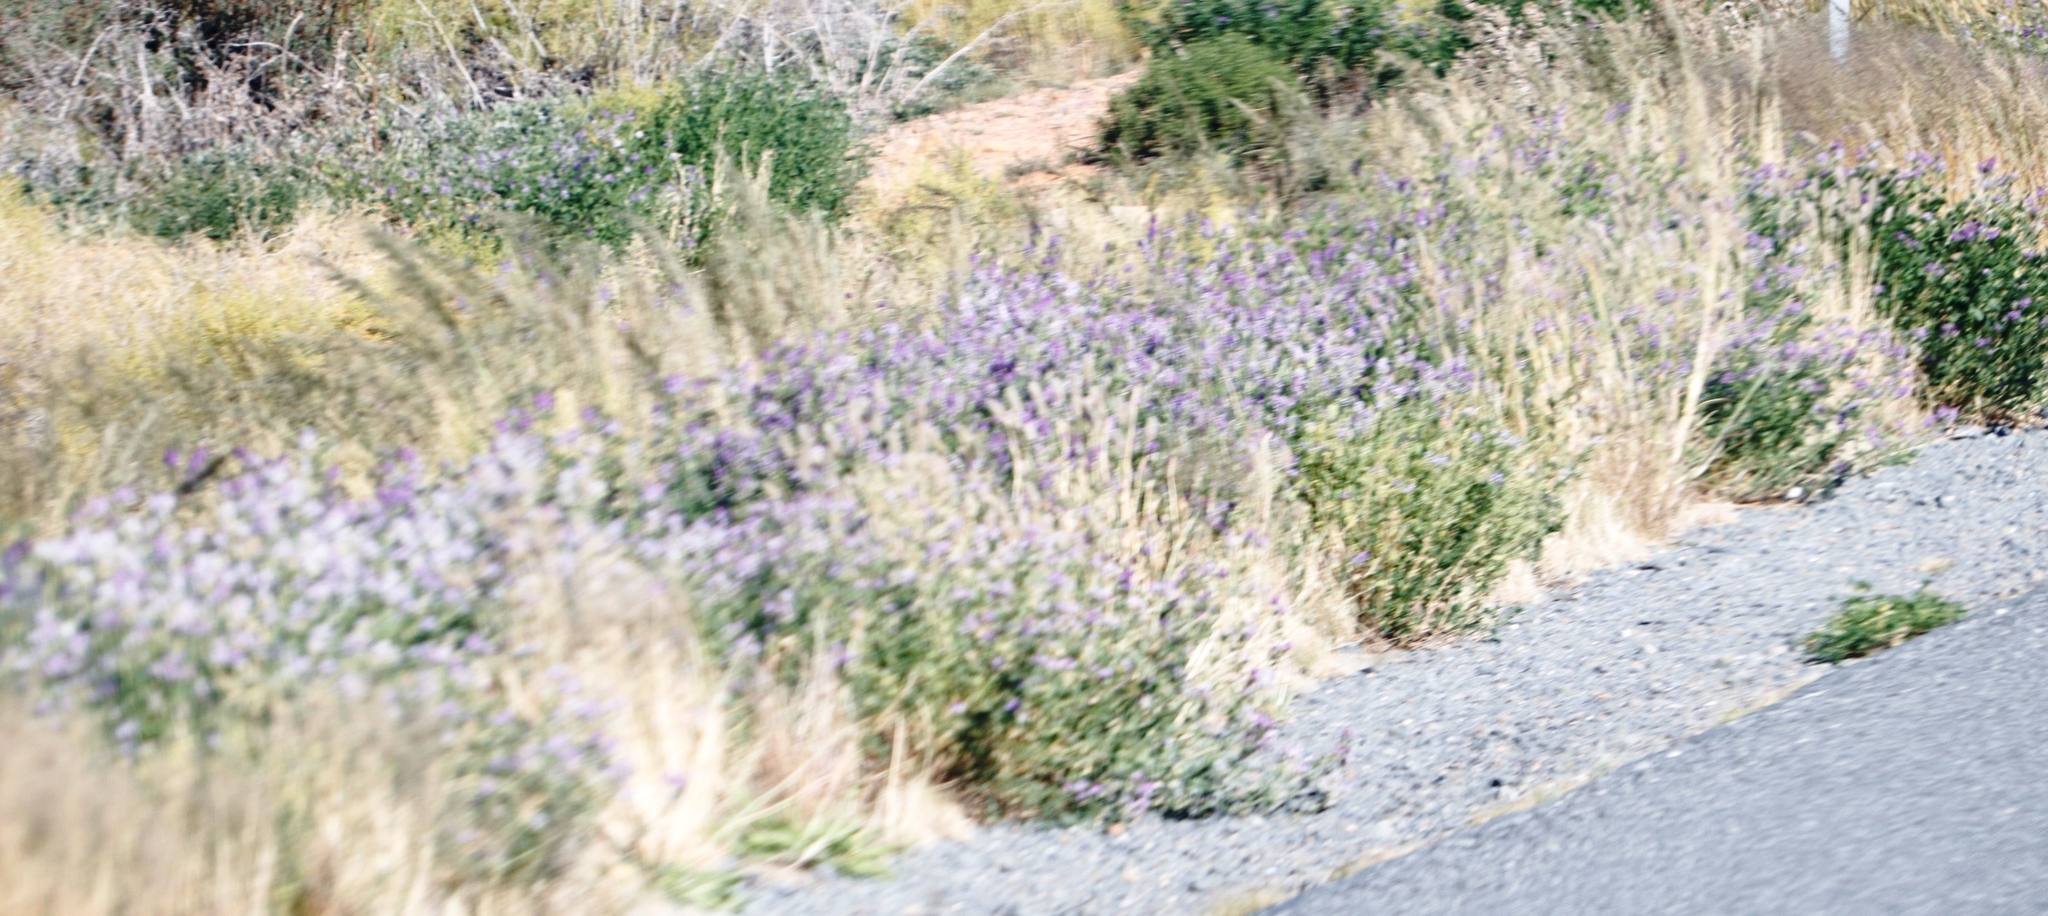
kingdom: Plantae
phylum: Tracheophyta
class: Magnoliopsida
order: Fabales
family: Fabaceae
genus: Medicago
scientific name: Medicago sativa
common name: Alfalfa
